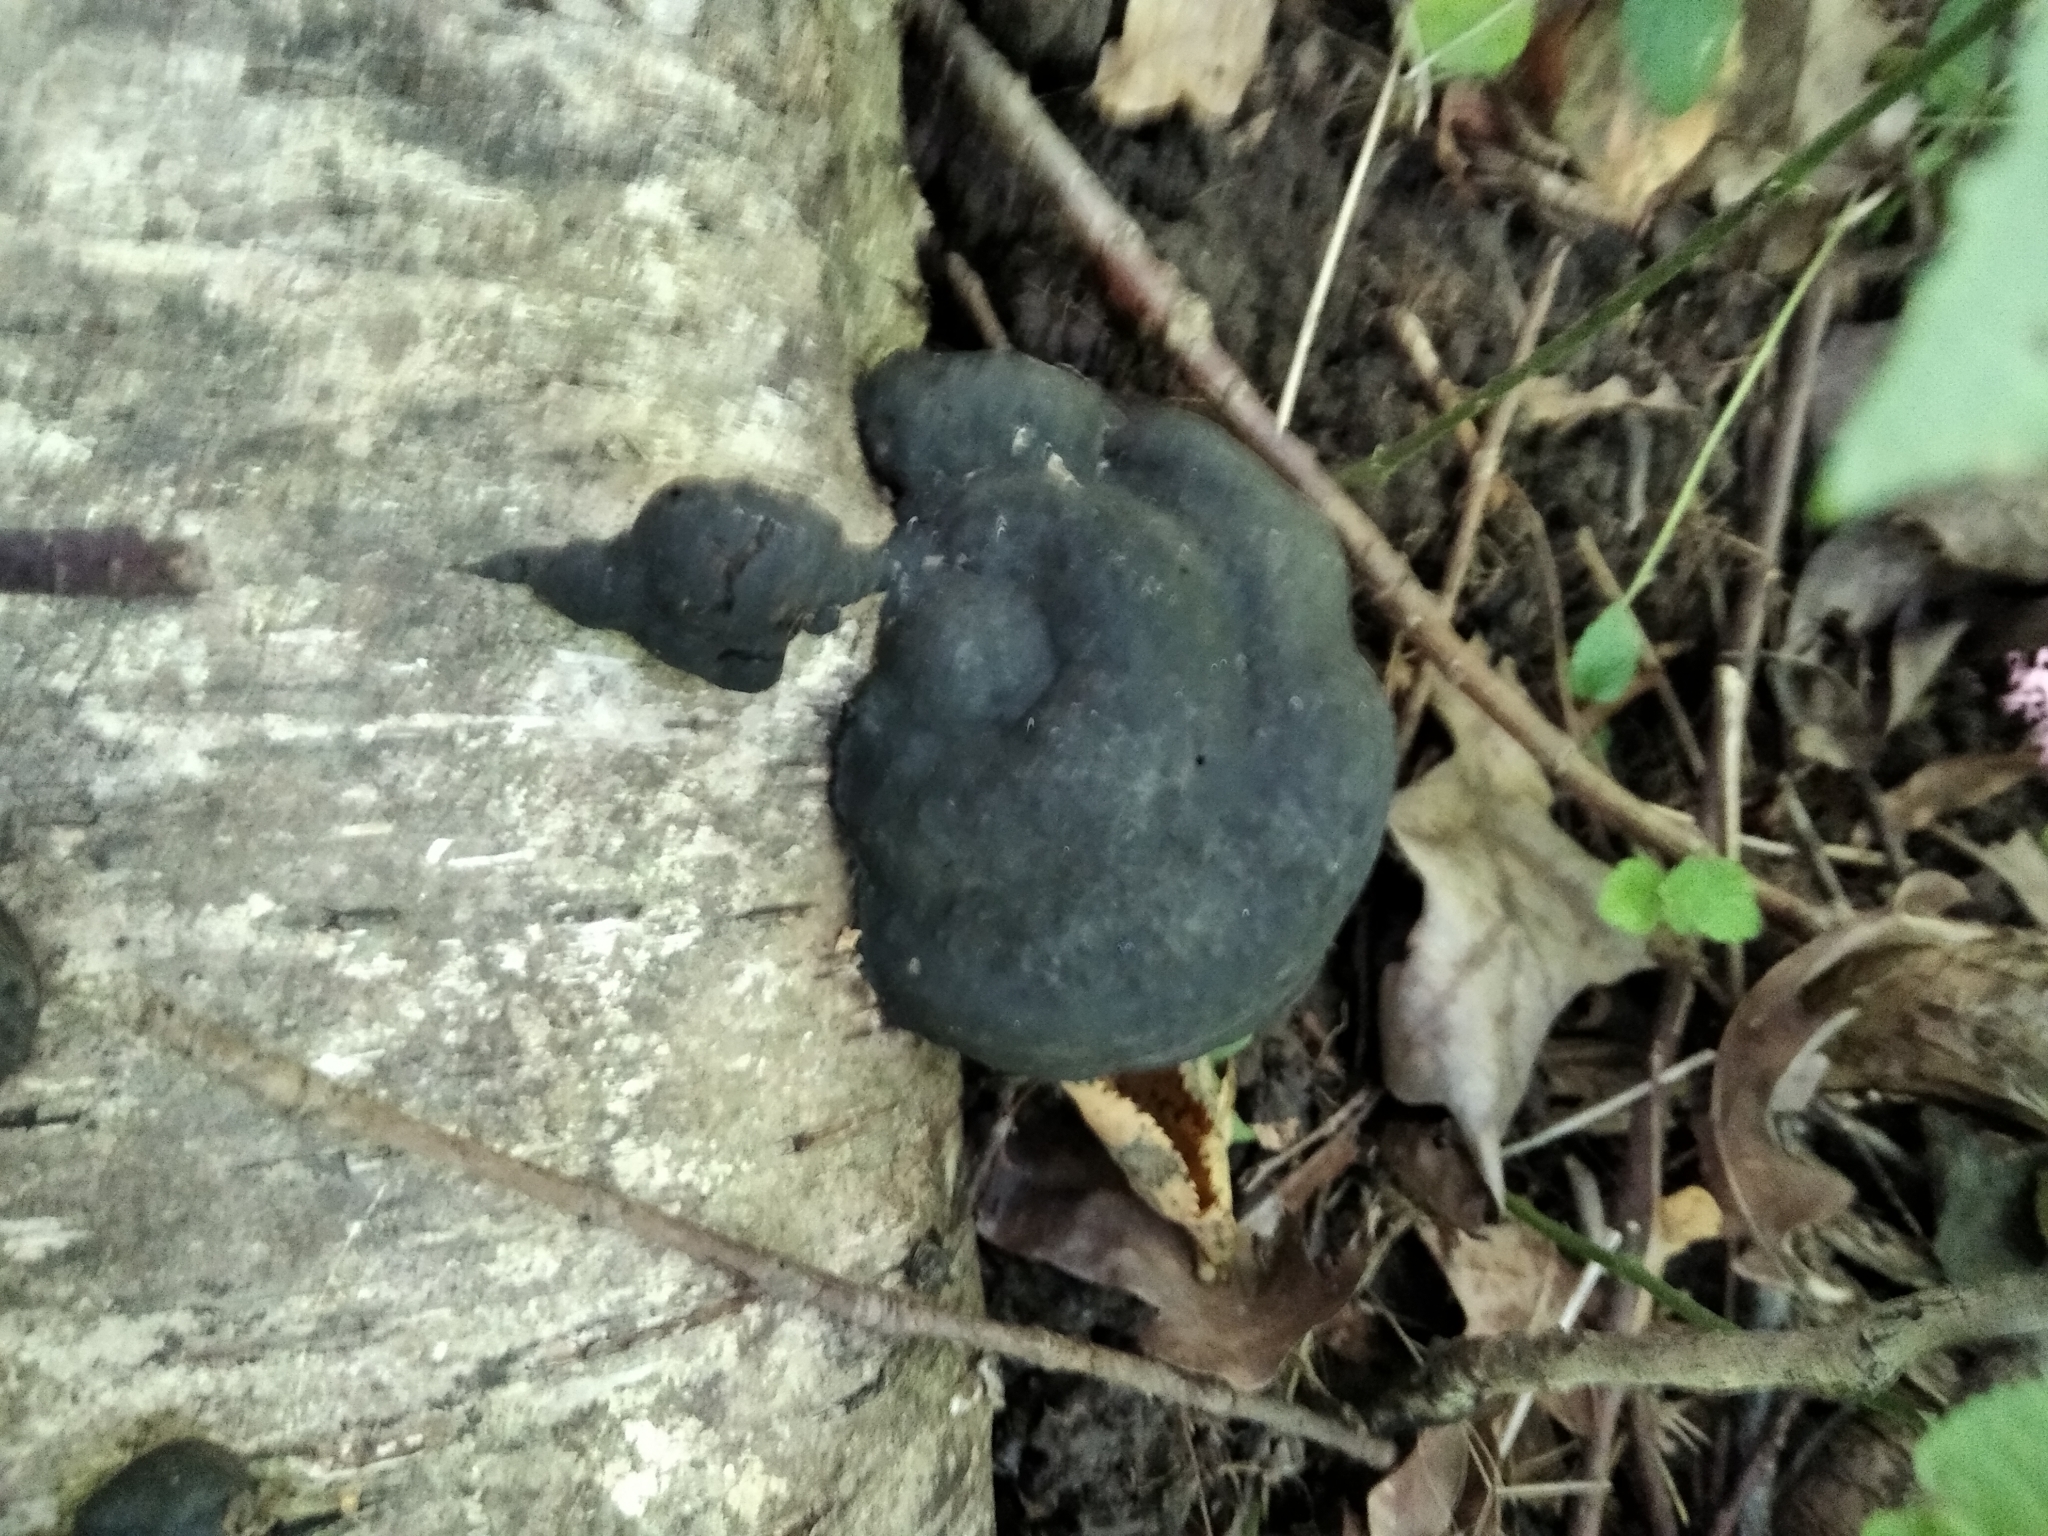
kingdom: Fungi
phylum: Basidiomycota
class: Agaricomycetes
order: Polyporales
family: Polyporaceae
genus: Fomes
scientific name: Fomes fomentarius
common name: Hoof fungus
